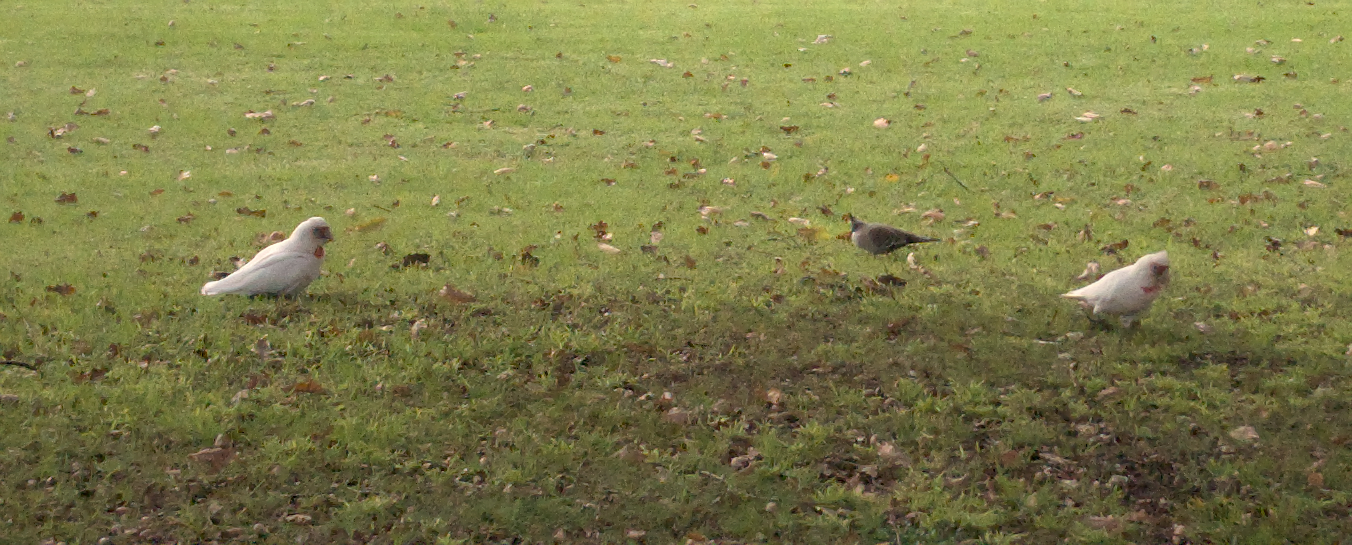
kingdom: Animalia
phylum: Chordata
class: Aves
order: Psittaciformes
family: Psittacidae
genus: Cacatua
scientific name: Cacatua tenuirostris
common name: Long-billed corella
